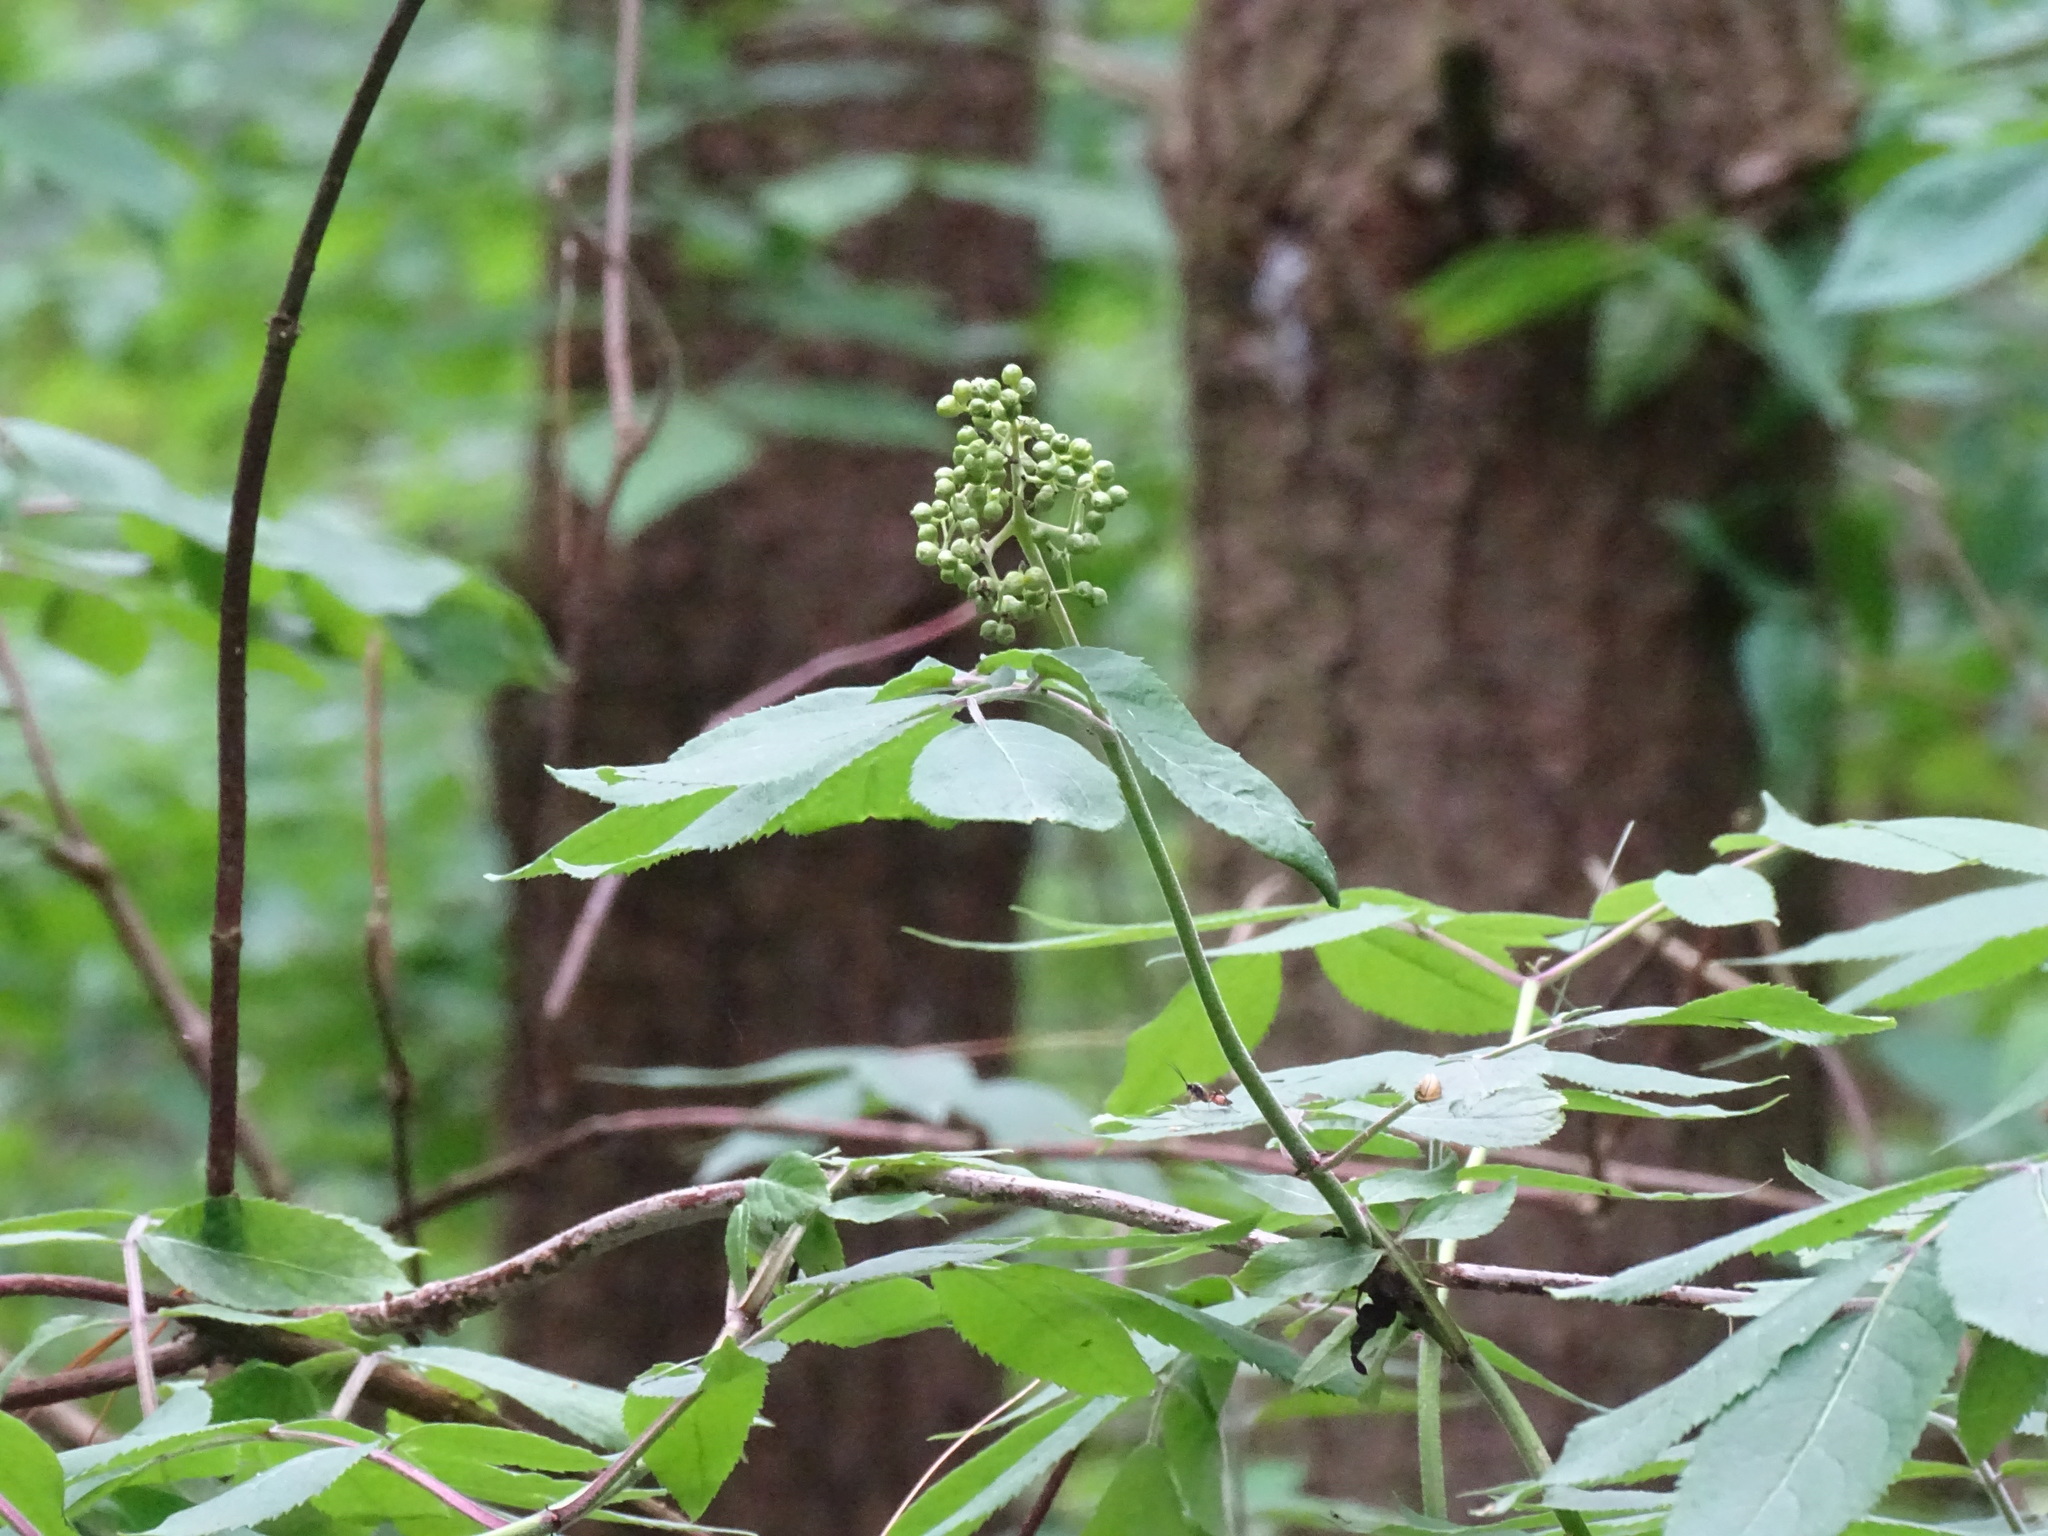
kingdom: Plantae
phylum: Tracheophyta
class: Magnoliopsida
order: Dipsacales
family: Viburnaceae
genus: Sambucus
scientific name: Sambucus racemosa
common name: Red-berried elder
